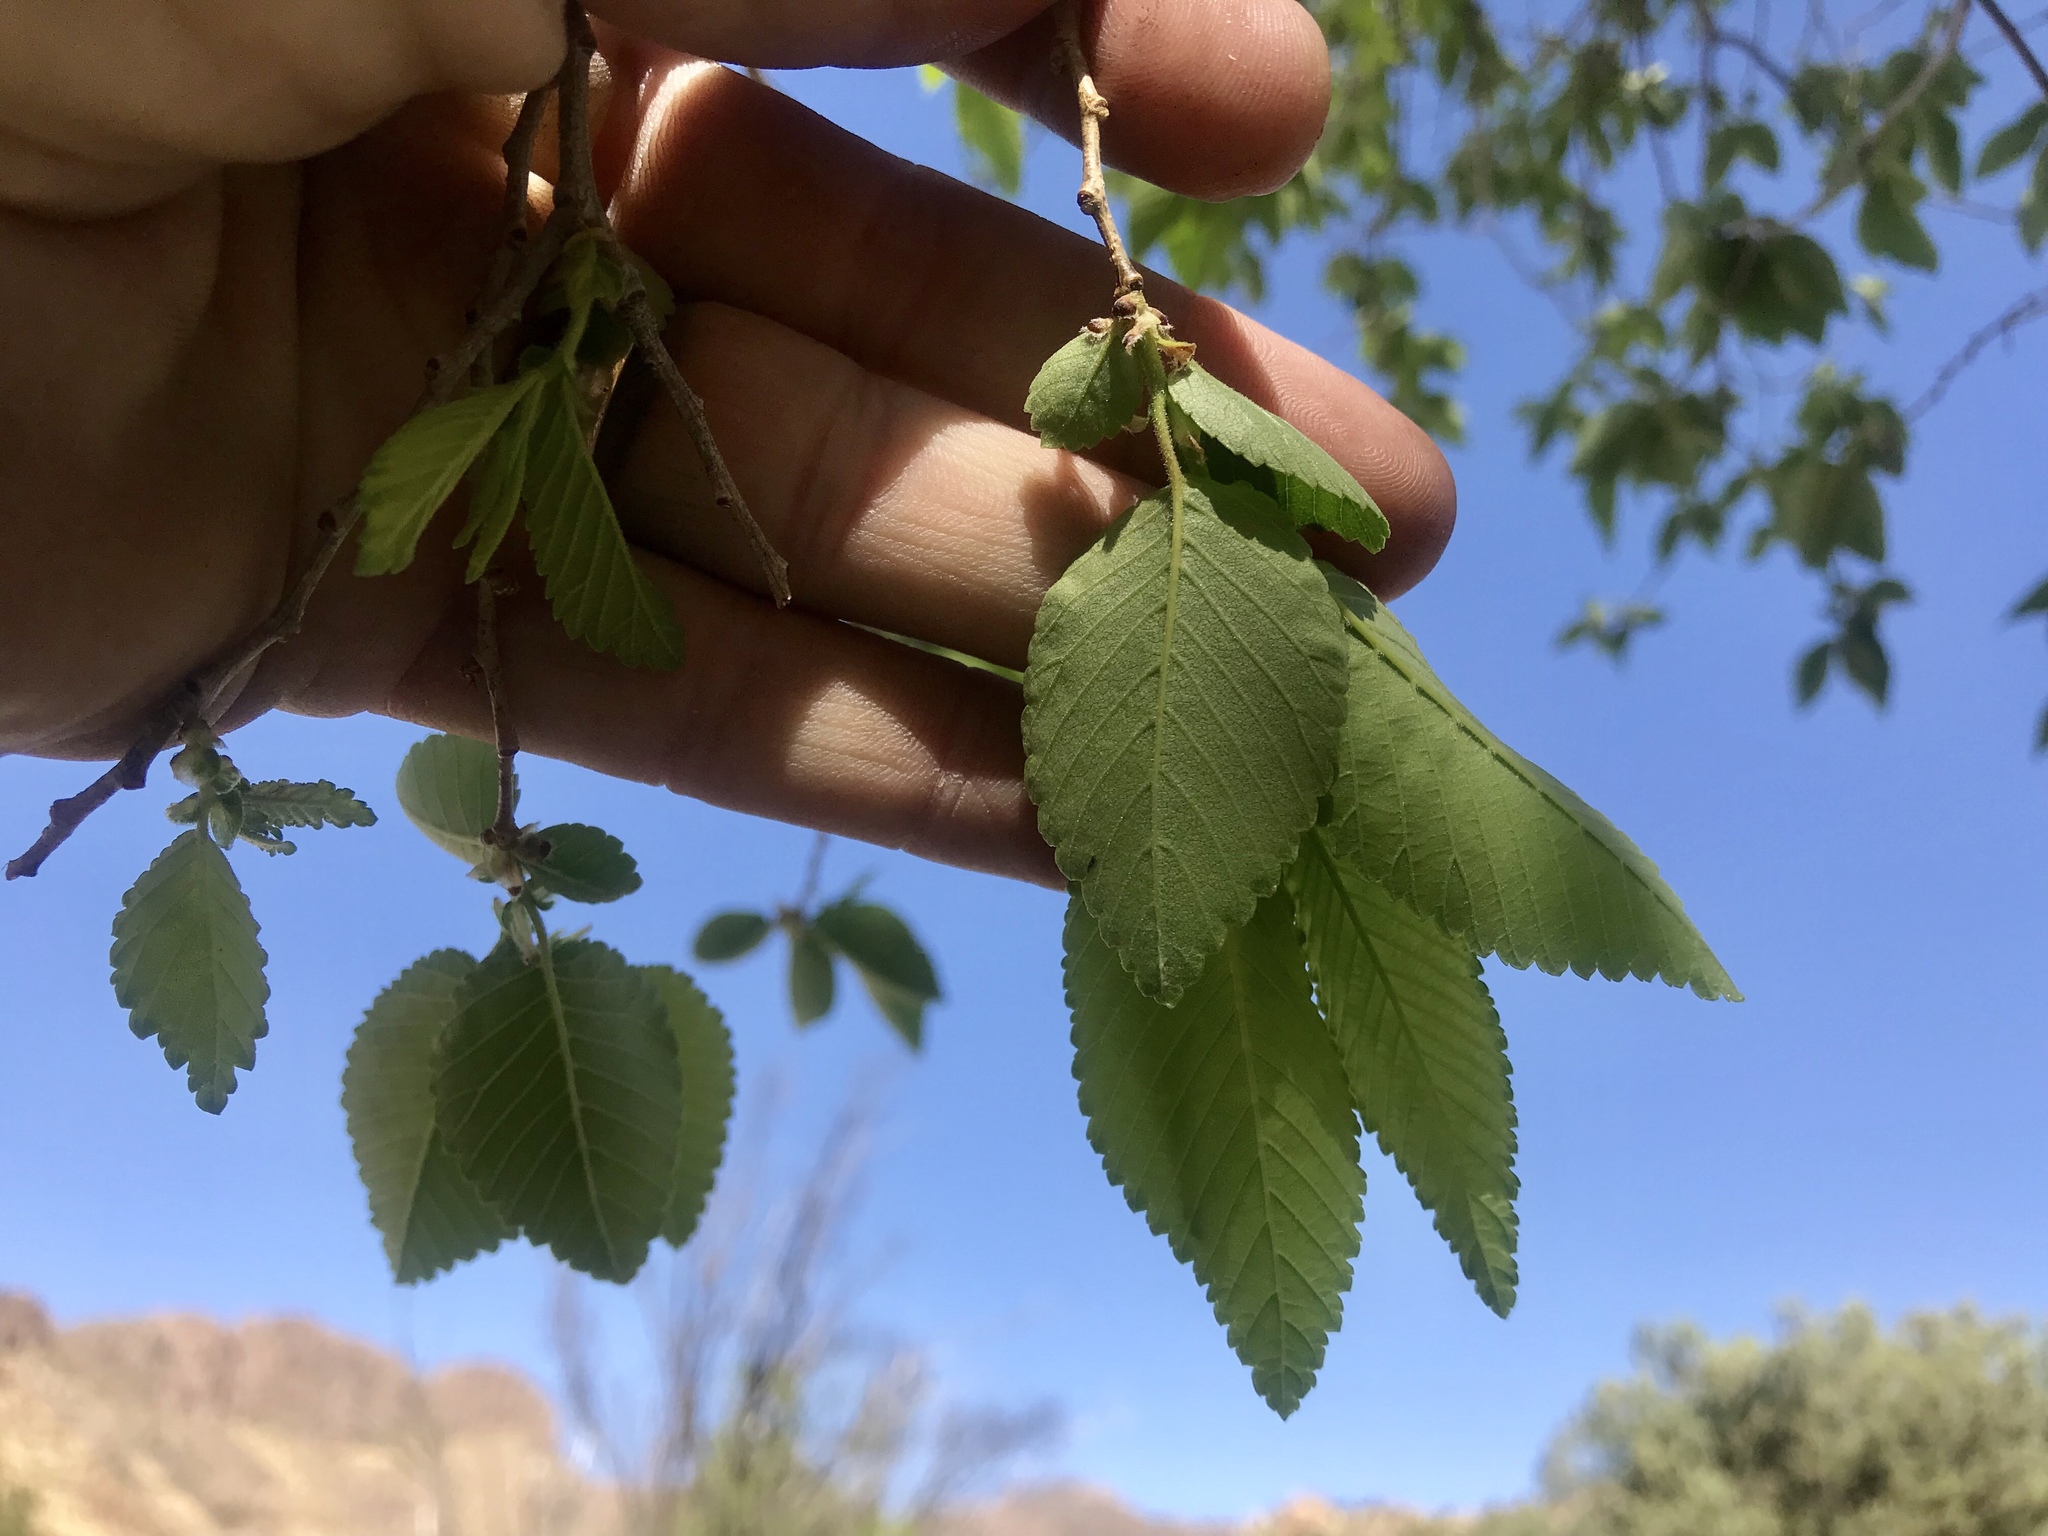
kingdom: Plantae
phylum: Tracheophyta
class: Magnoliopsida
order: Rosales
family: Ulmaceae
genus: Ulmus
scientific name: Ulmus pumila
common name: Siberian elm
